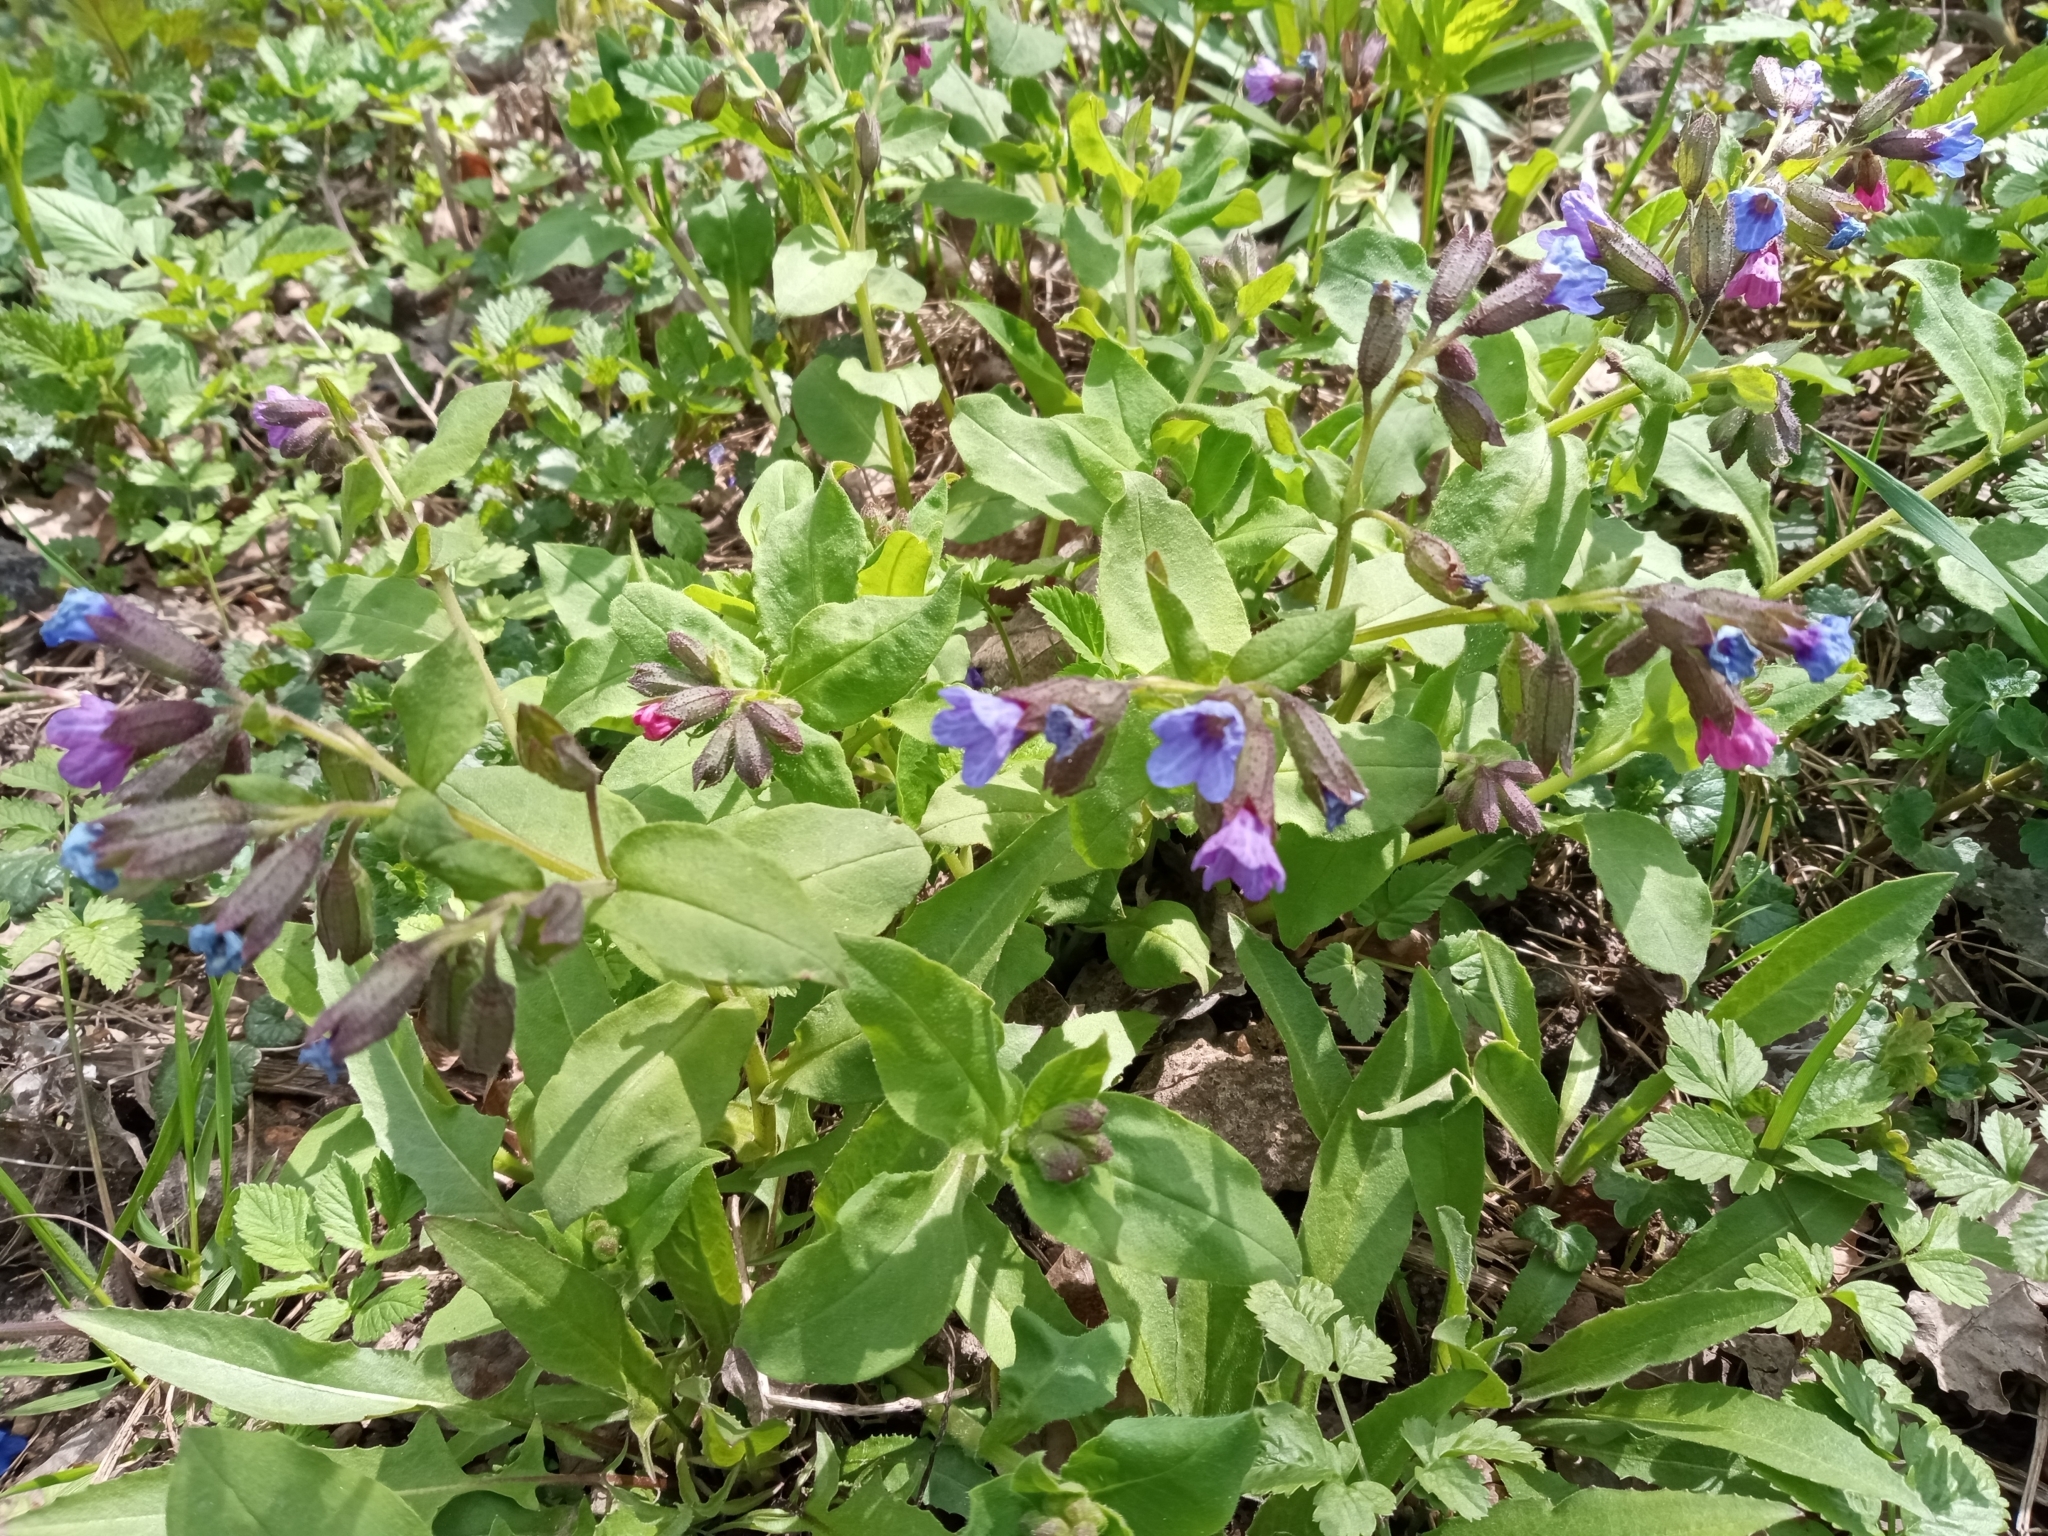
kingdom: Plantae
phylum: Tracheophyta
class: Magnoliopsida
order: Boraginales
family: Boraginaceae
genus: Pulmonaria
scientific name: Pulmonaria obscura
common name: Suffolk lungwort
